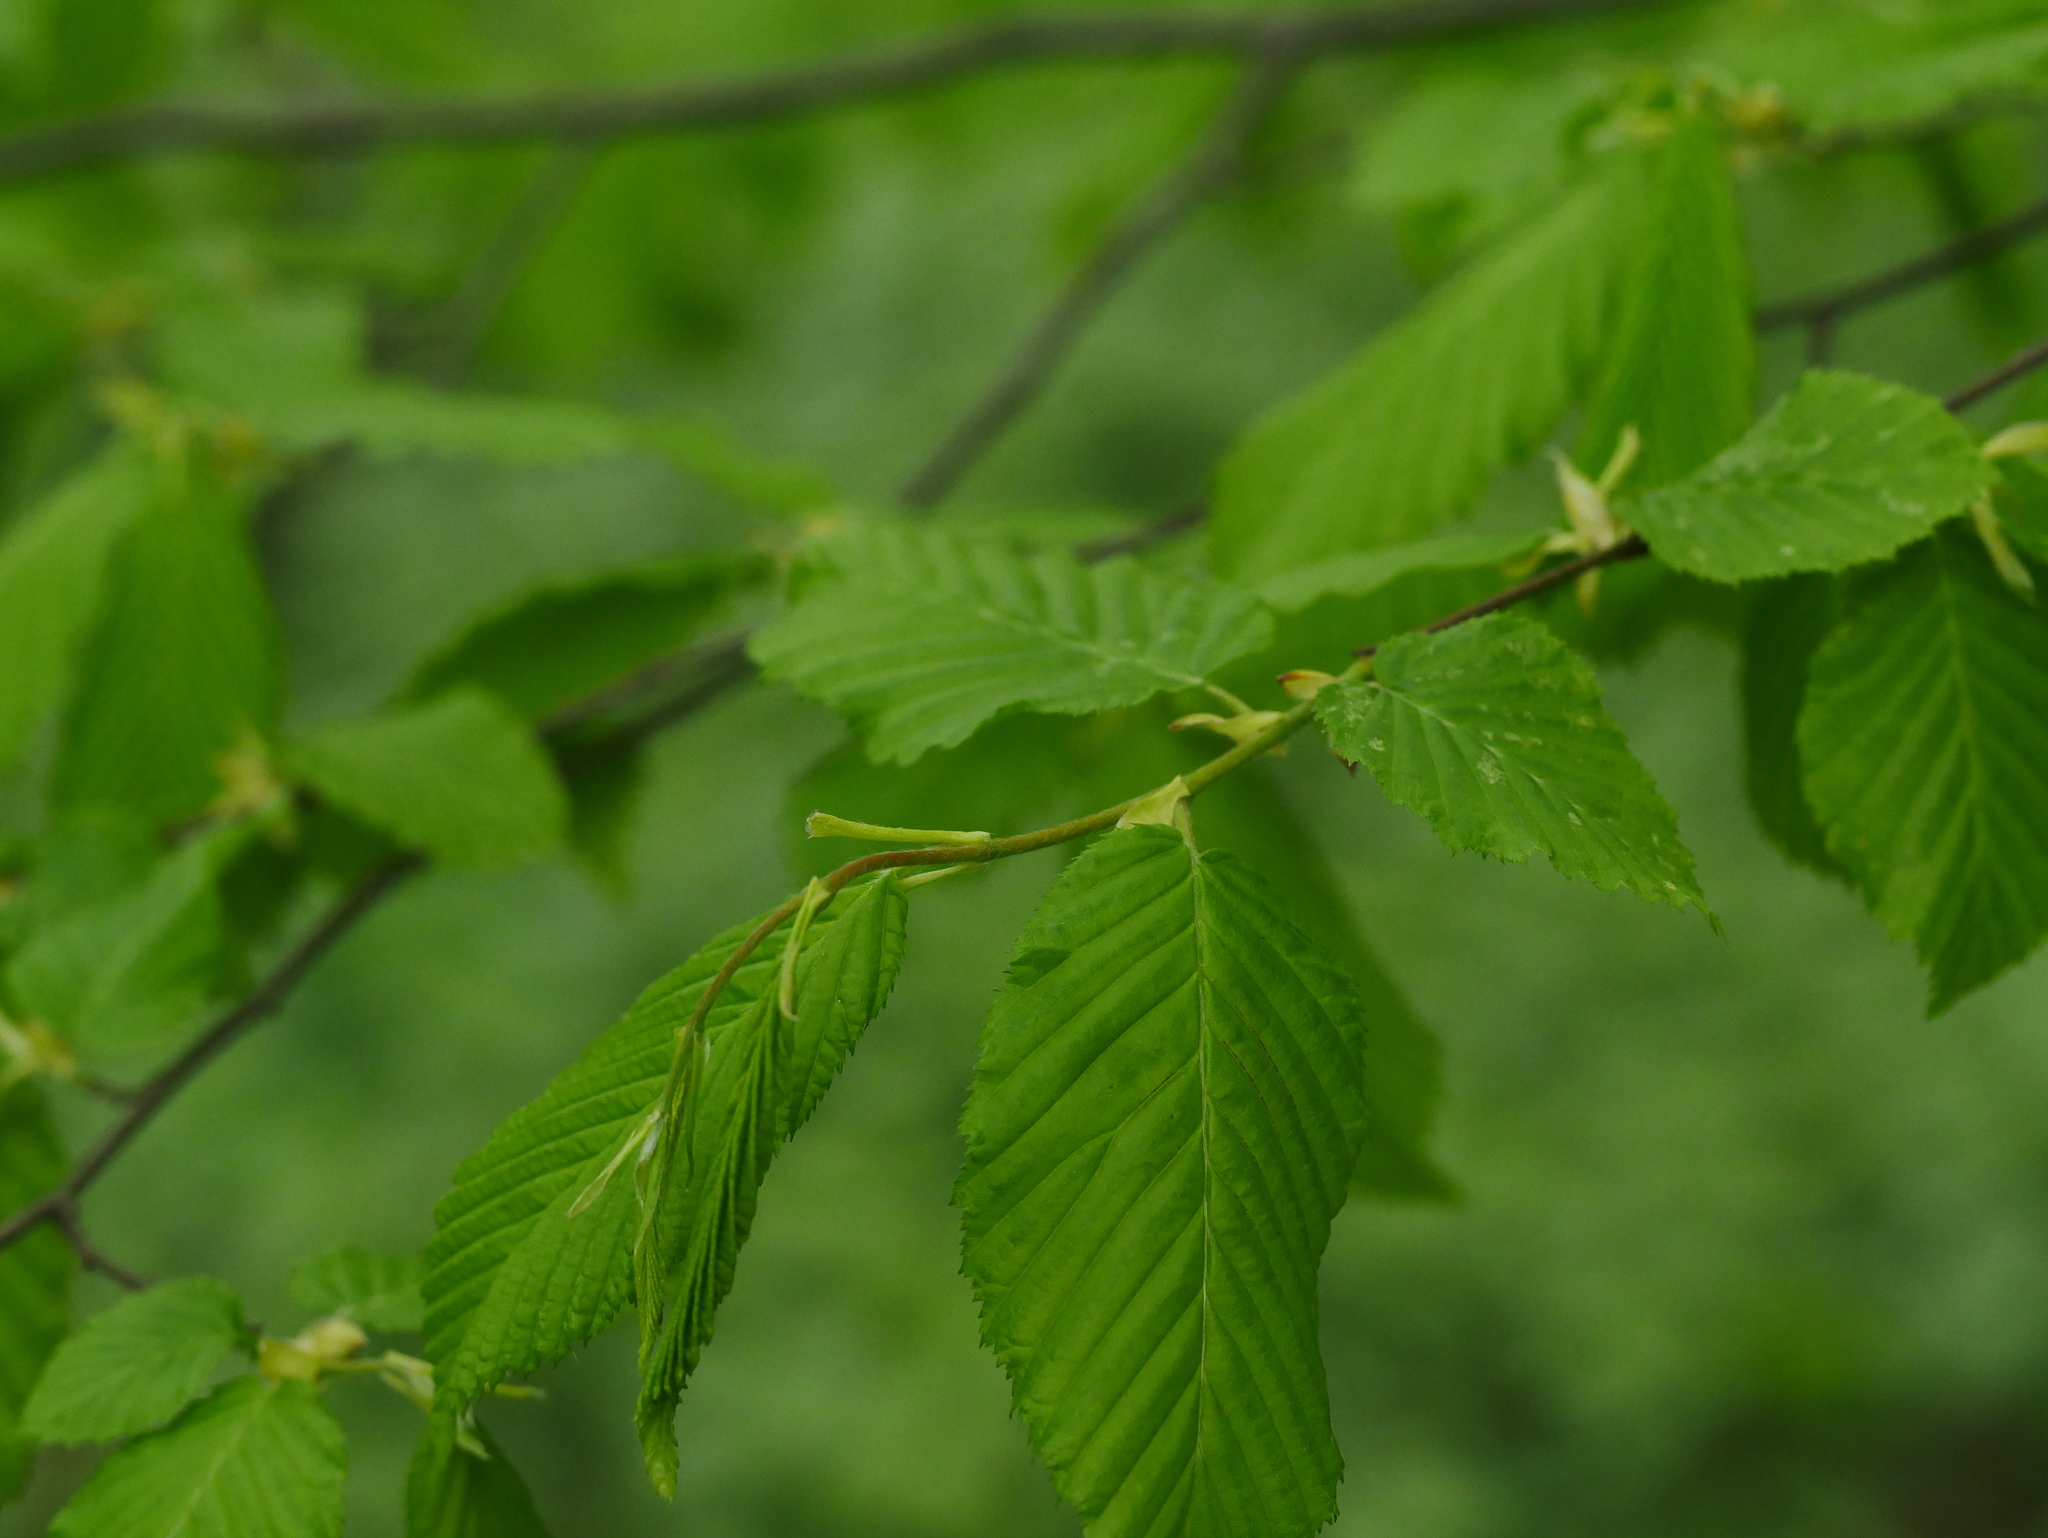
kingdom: Plantae
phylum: Tracheophyta
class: Magnoliopsida
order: Fagales
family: Betulaceae
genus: Carpinus
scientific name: Carpinus betulus
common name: Hornbeam
